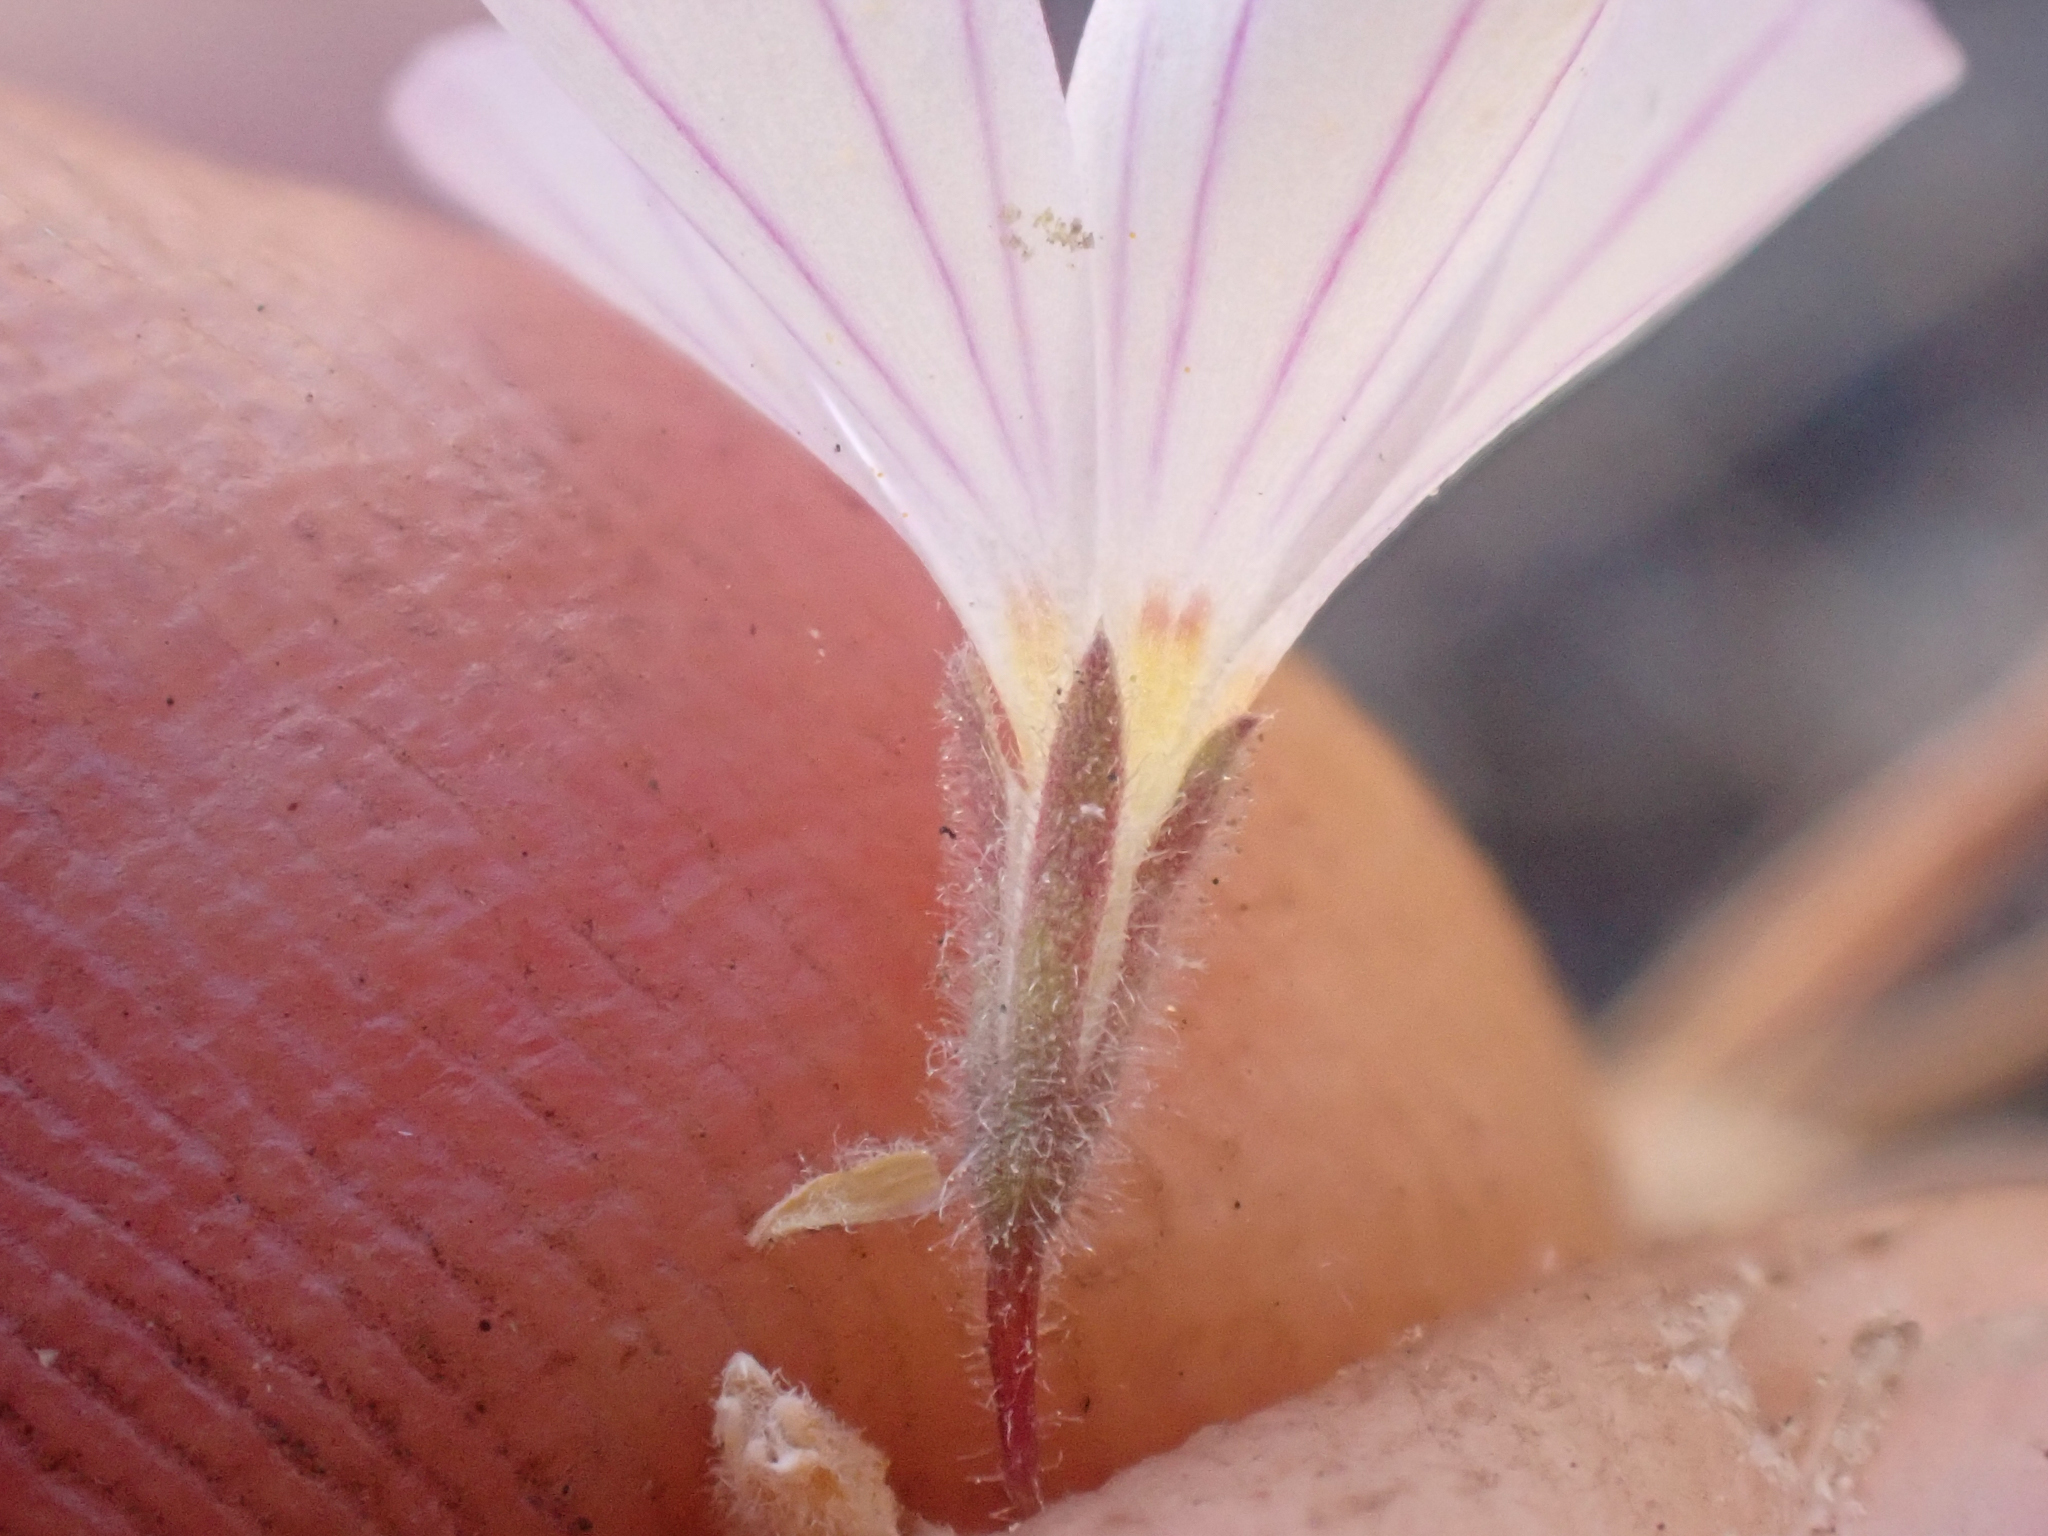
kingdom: Plantae
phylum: Tracheophyta
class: Magnoliopsida
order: Ericales
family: Polemoniaceae
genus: Leptosiphon
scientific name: Leptosiphon liniflorus
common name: Narrowflower flaxflower
